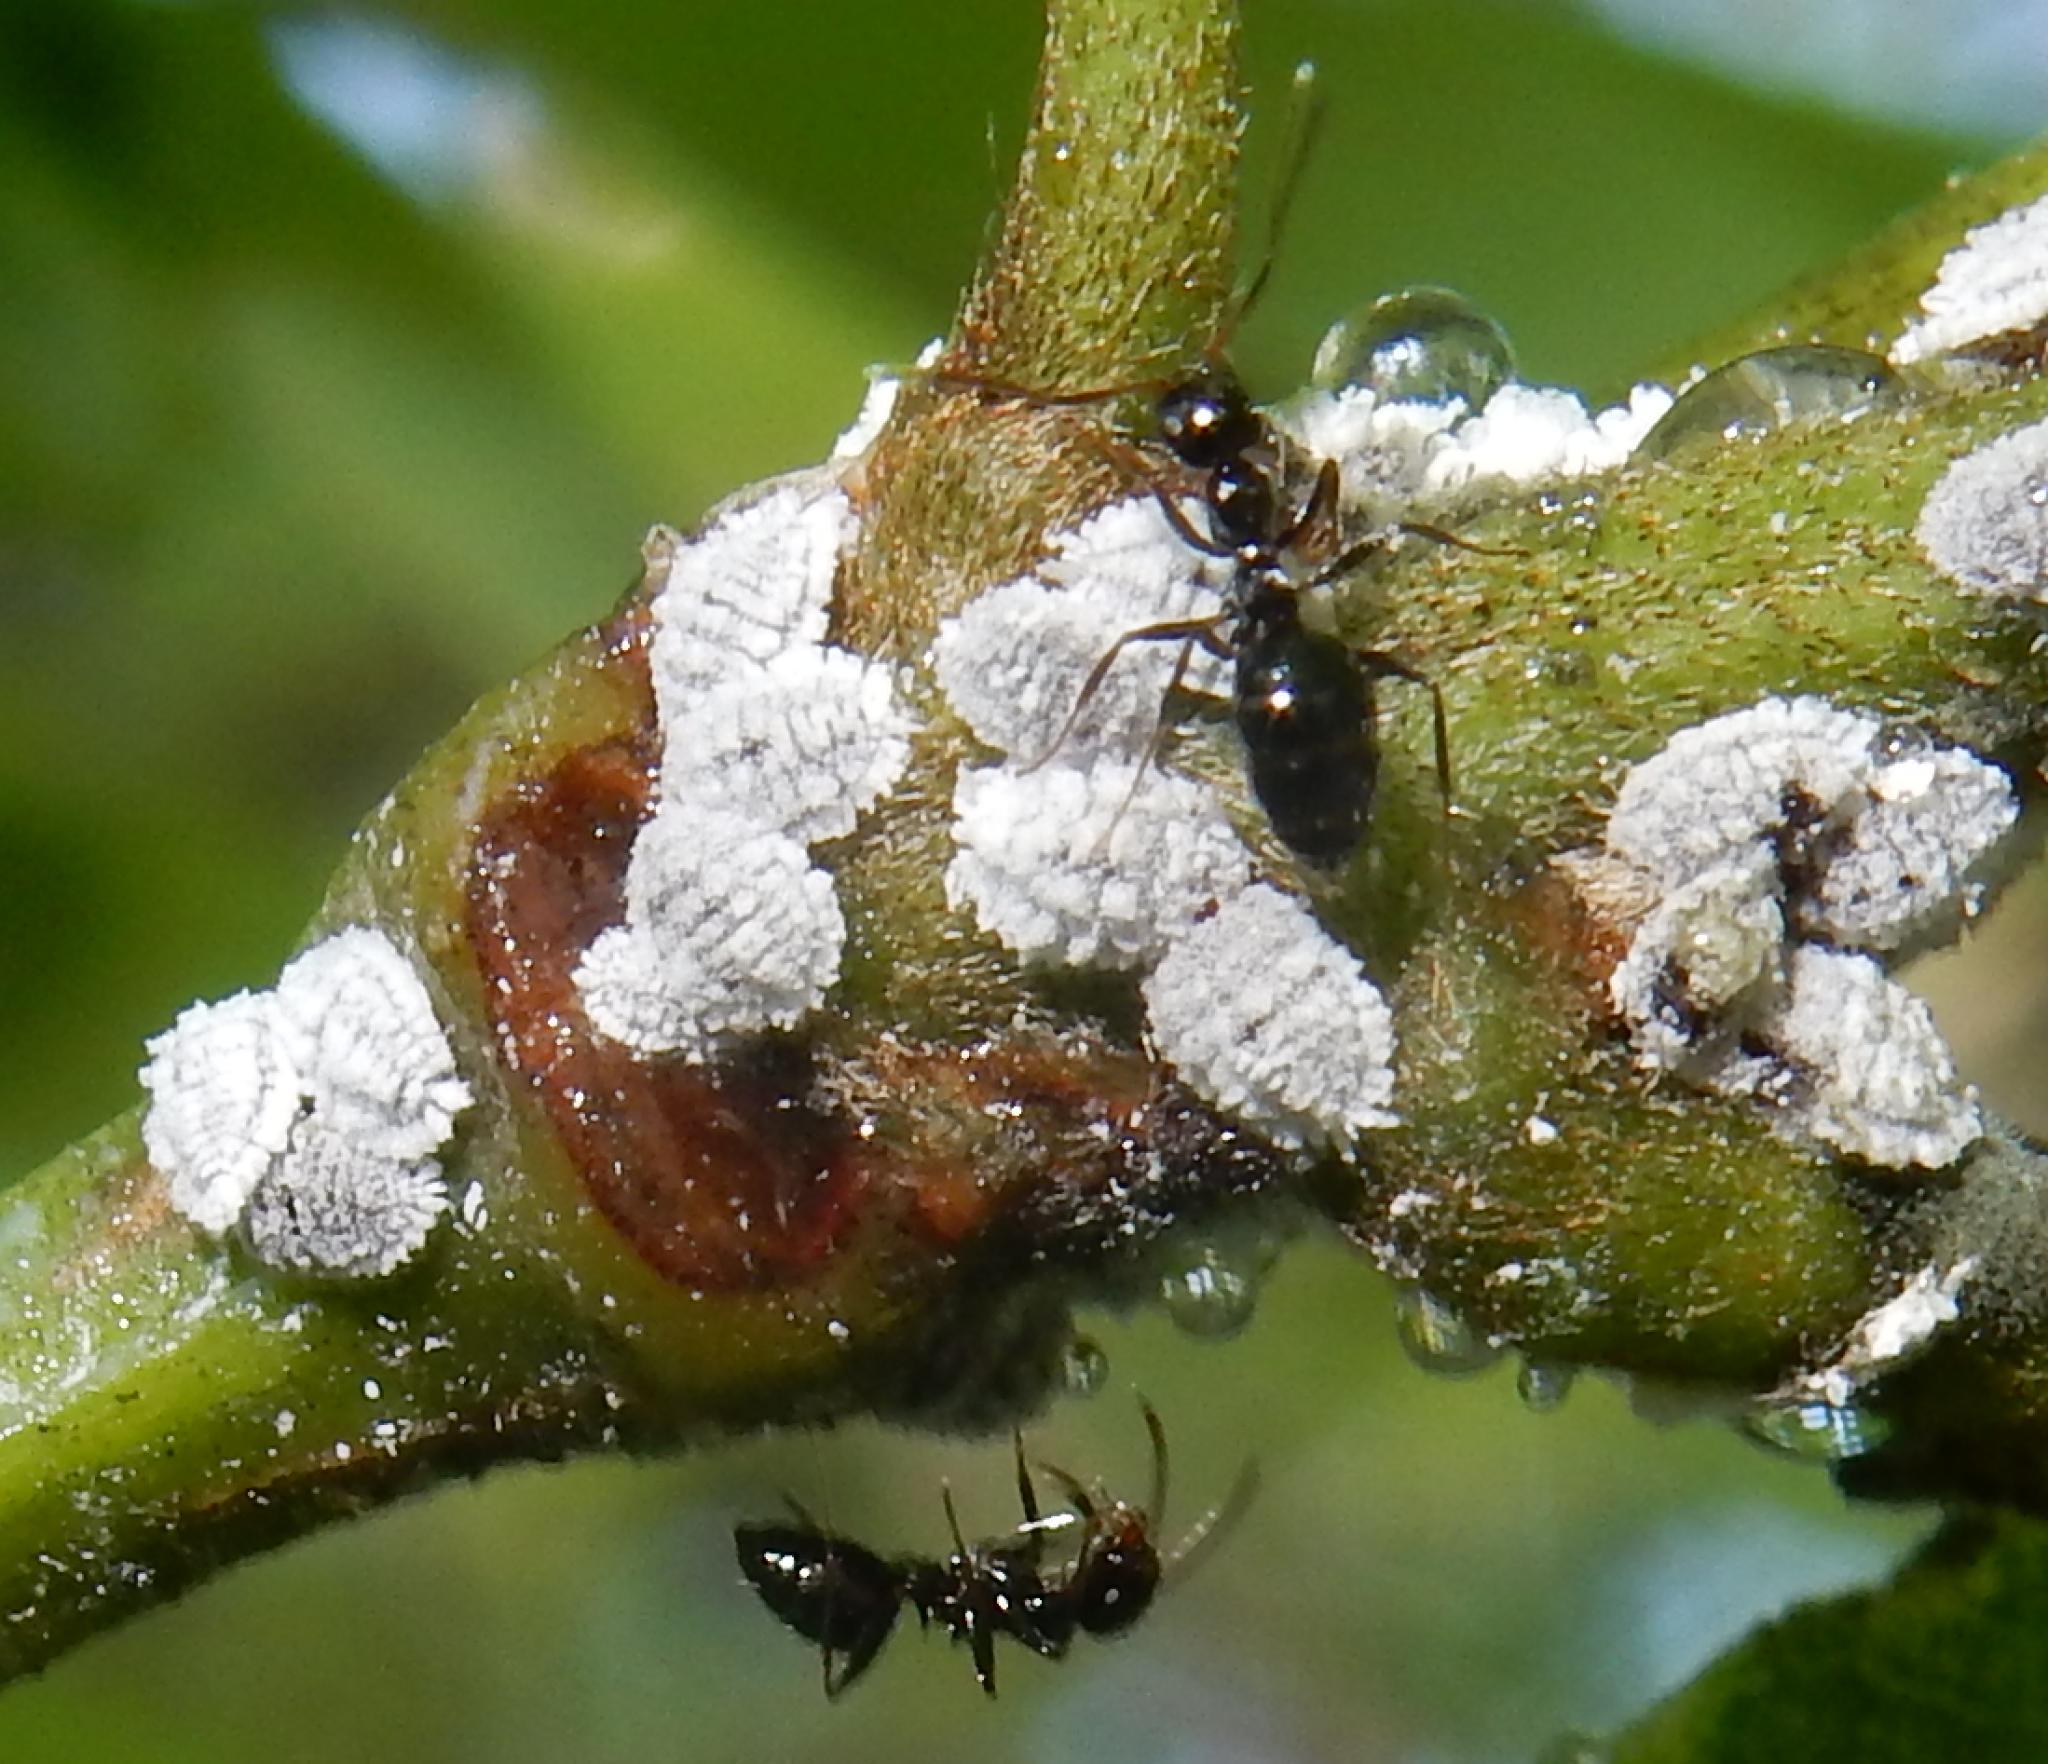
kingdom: Animalia
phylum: Arthropoda
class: Insecta
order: Hymenoptera
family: Formicidae
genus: Lepisiota
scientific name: Lepisiota capensis
